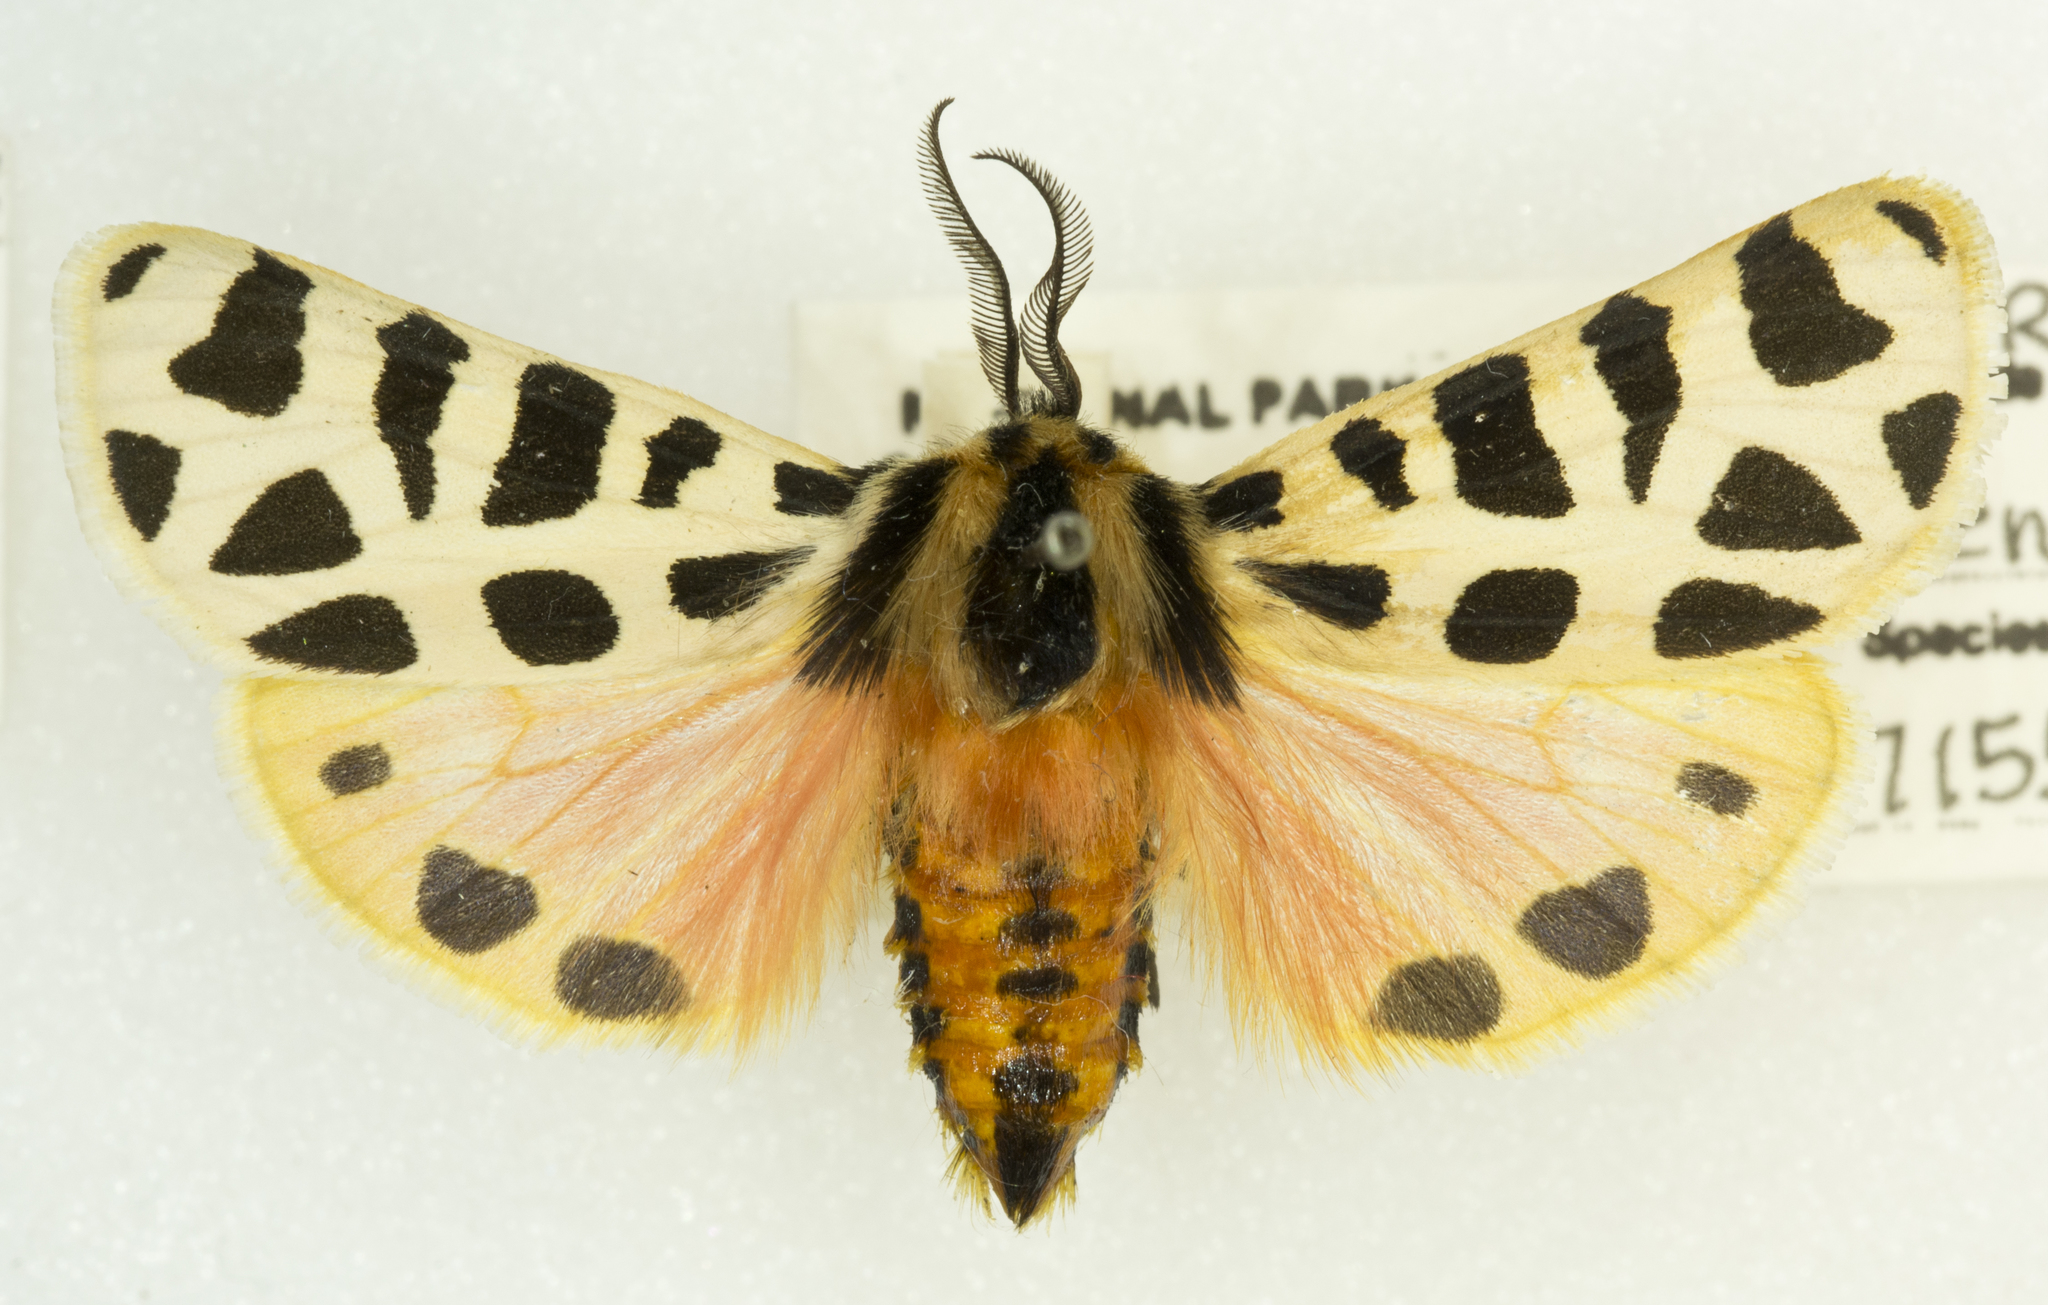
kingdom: Animalia
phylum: Arthropoda
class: Insecta
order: Lepidoptera
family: Erebidae
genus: Apantesis
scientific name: Apantesis incorrupta
